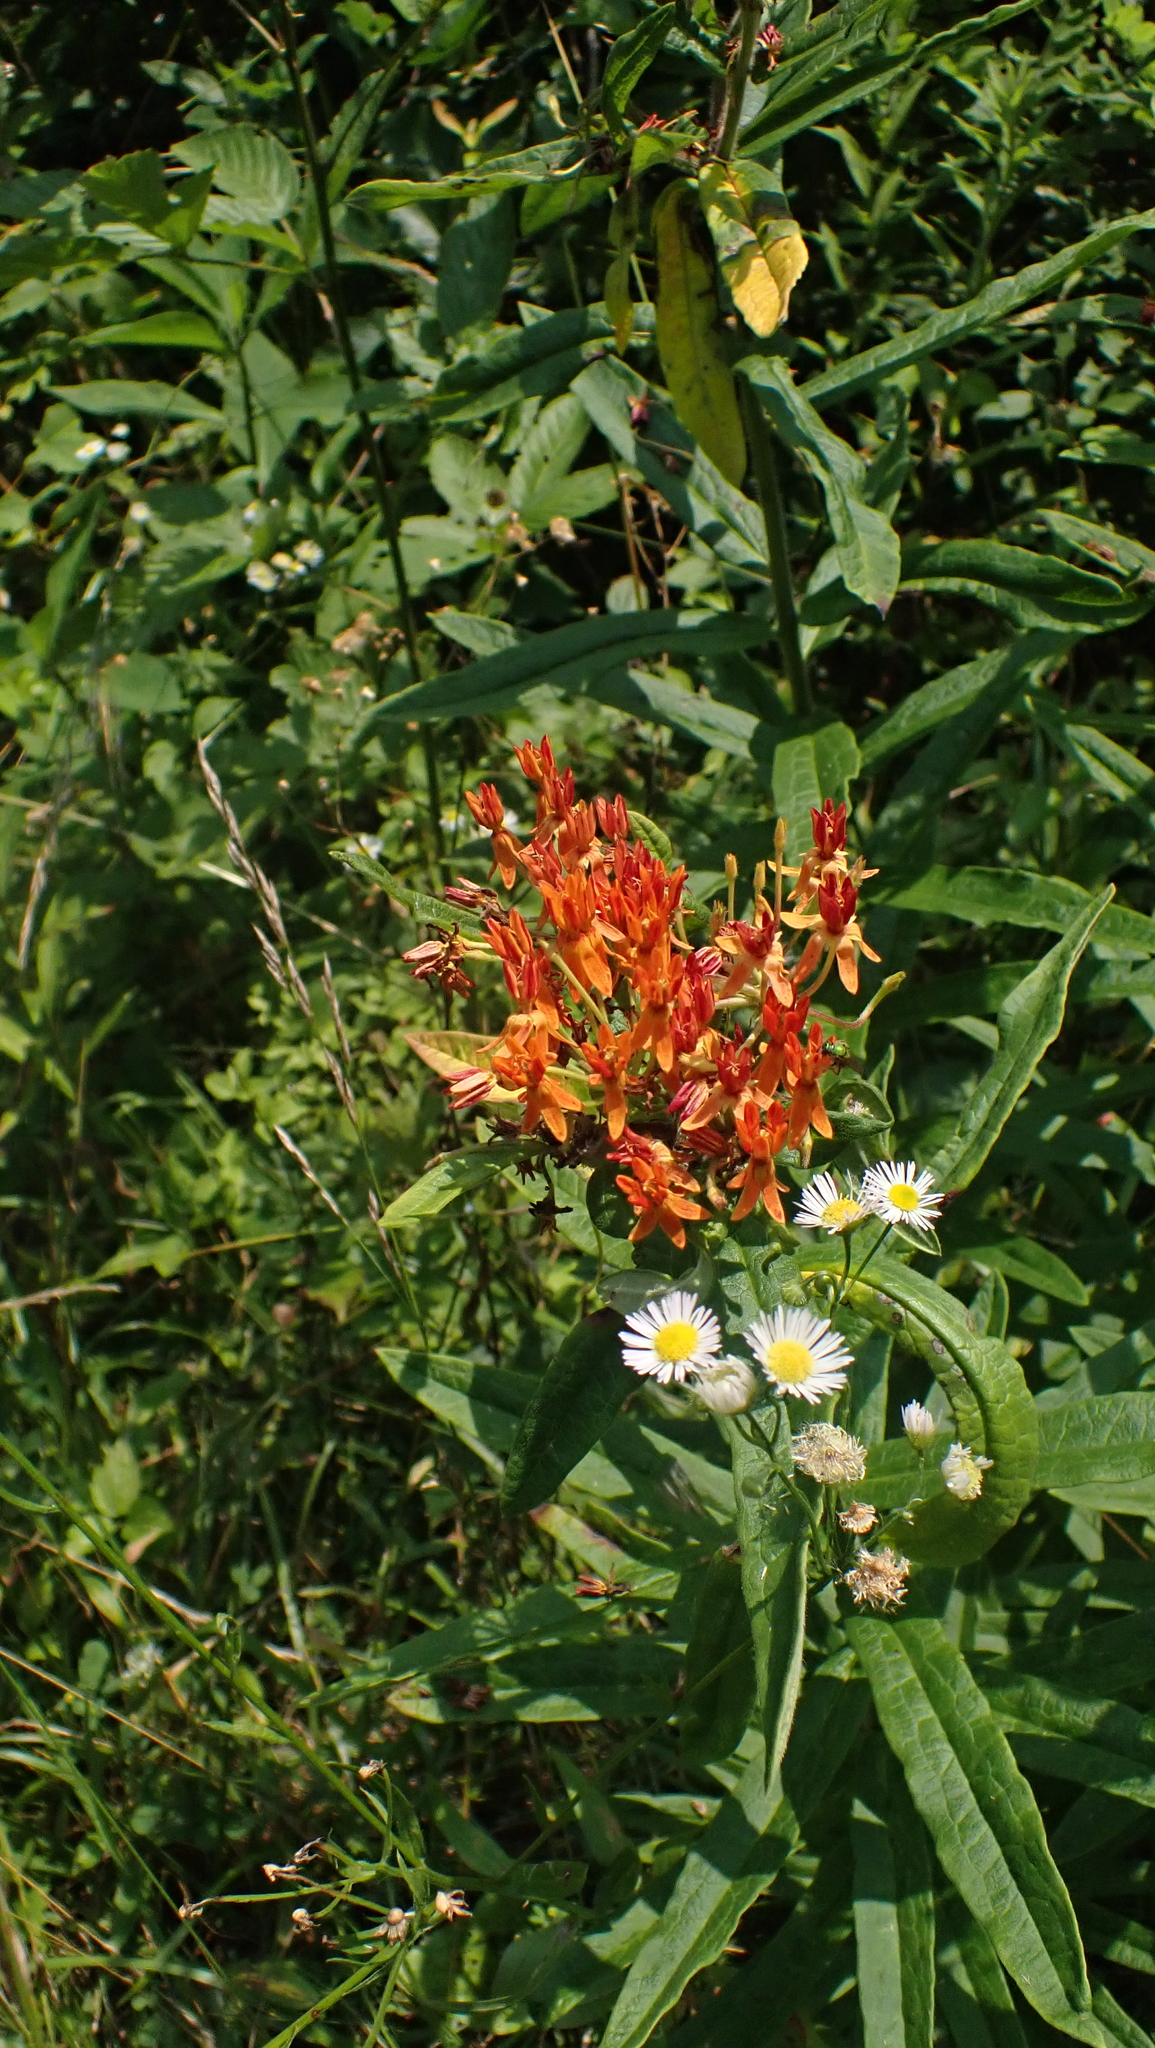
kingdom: Plantae
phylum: Tracheophyta
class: Magnoliopsida
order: Gentianales
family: Apocynaceae
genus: Asclepias
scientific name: Asclepias tuberosa
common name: Butterfly milkweed
